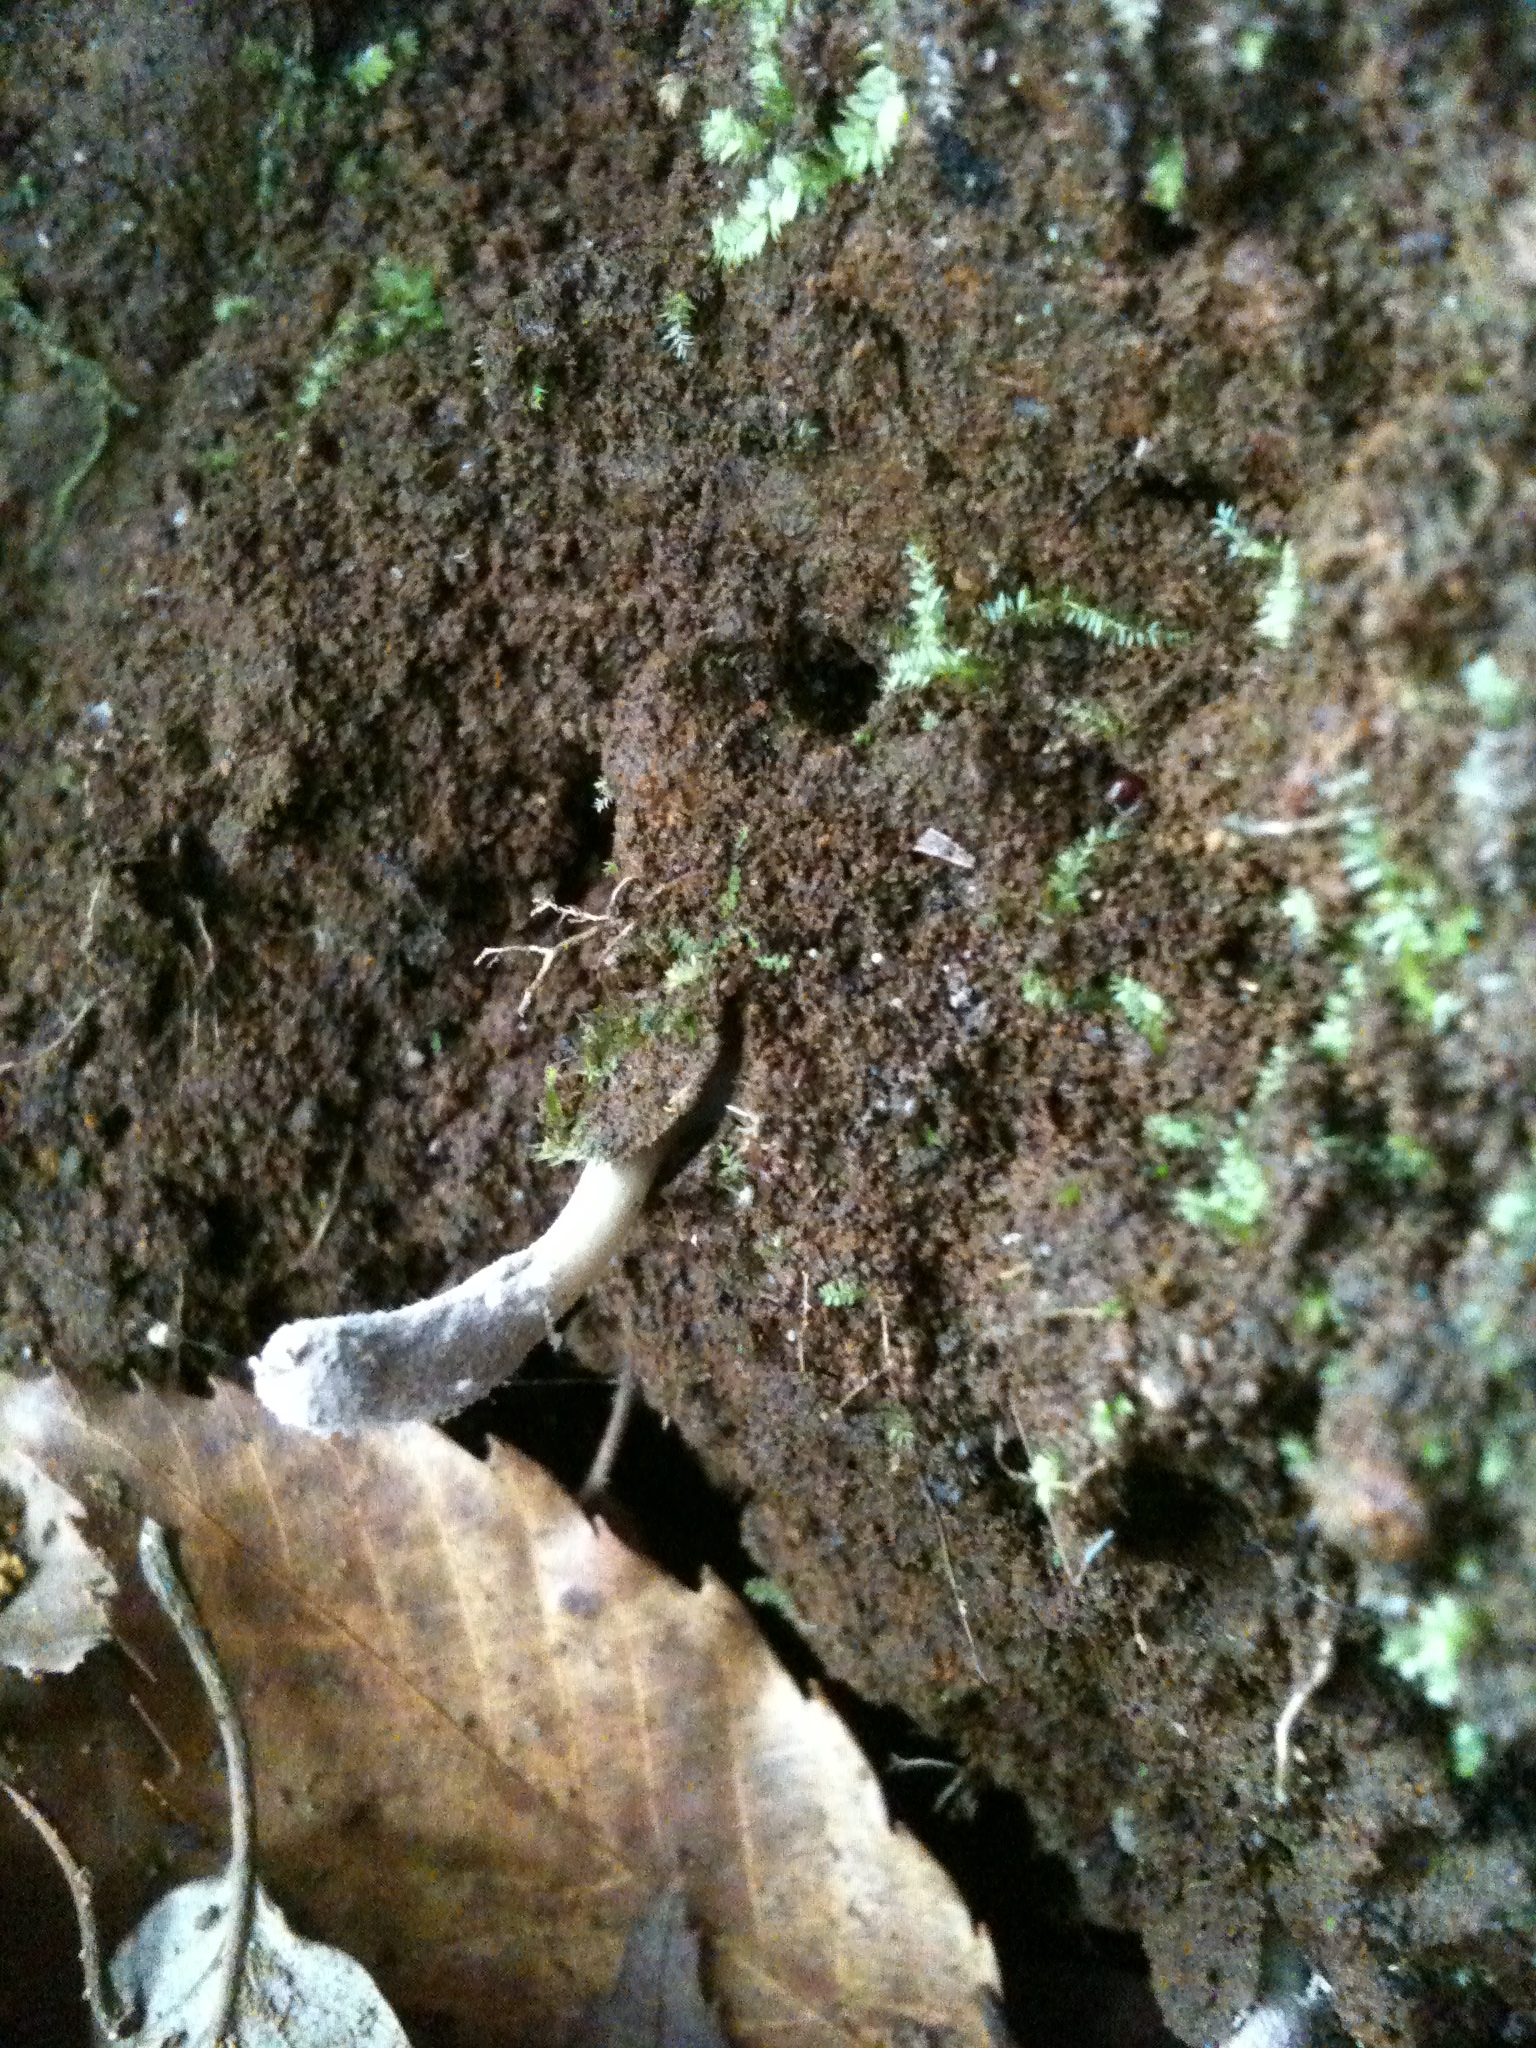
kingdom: Fungi
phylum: Ascomycota
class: Sordariomycetes
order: Hypocreales
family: Ophiocordycipitaceae
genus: Purpureocillium
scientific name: Purpureocillium atypicola
